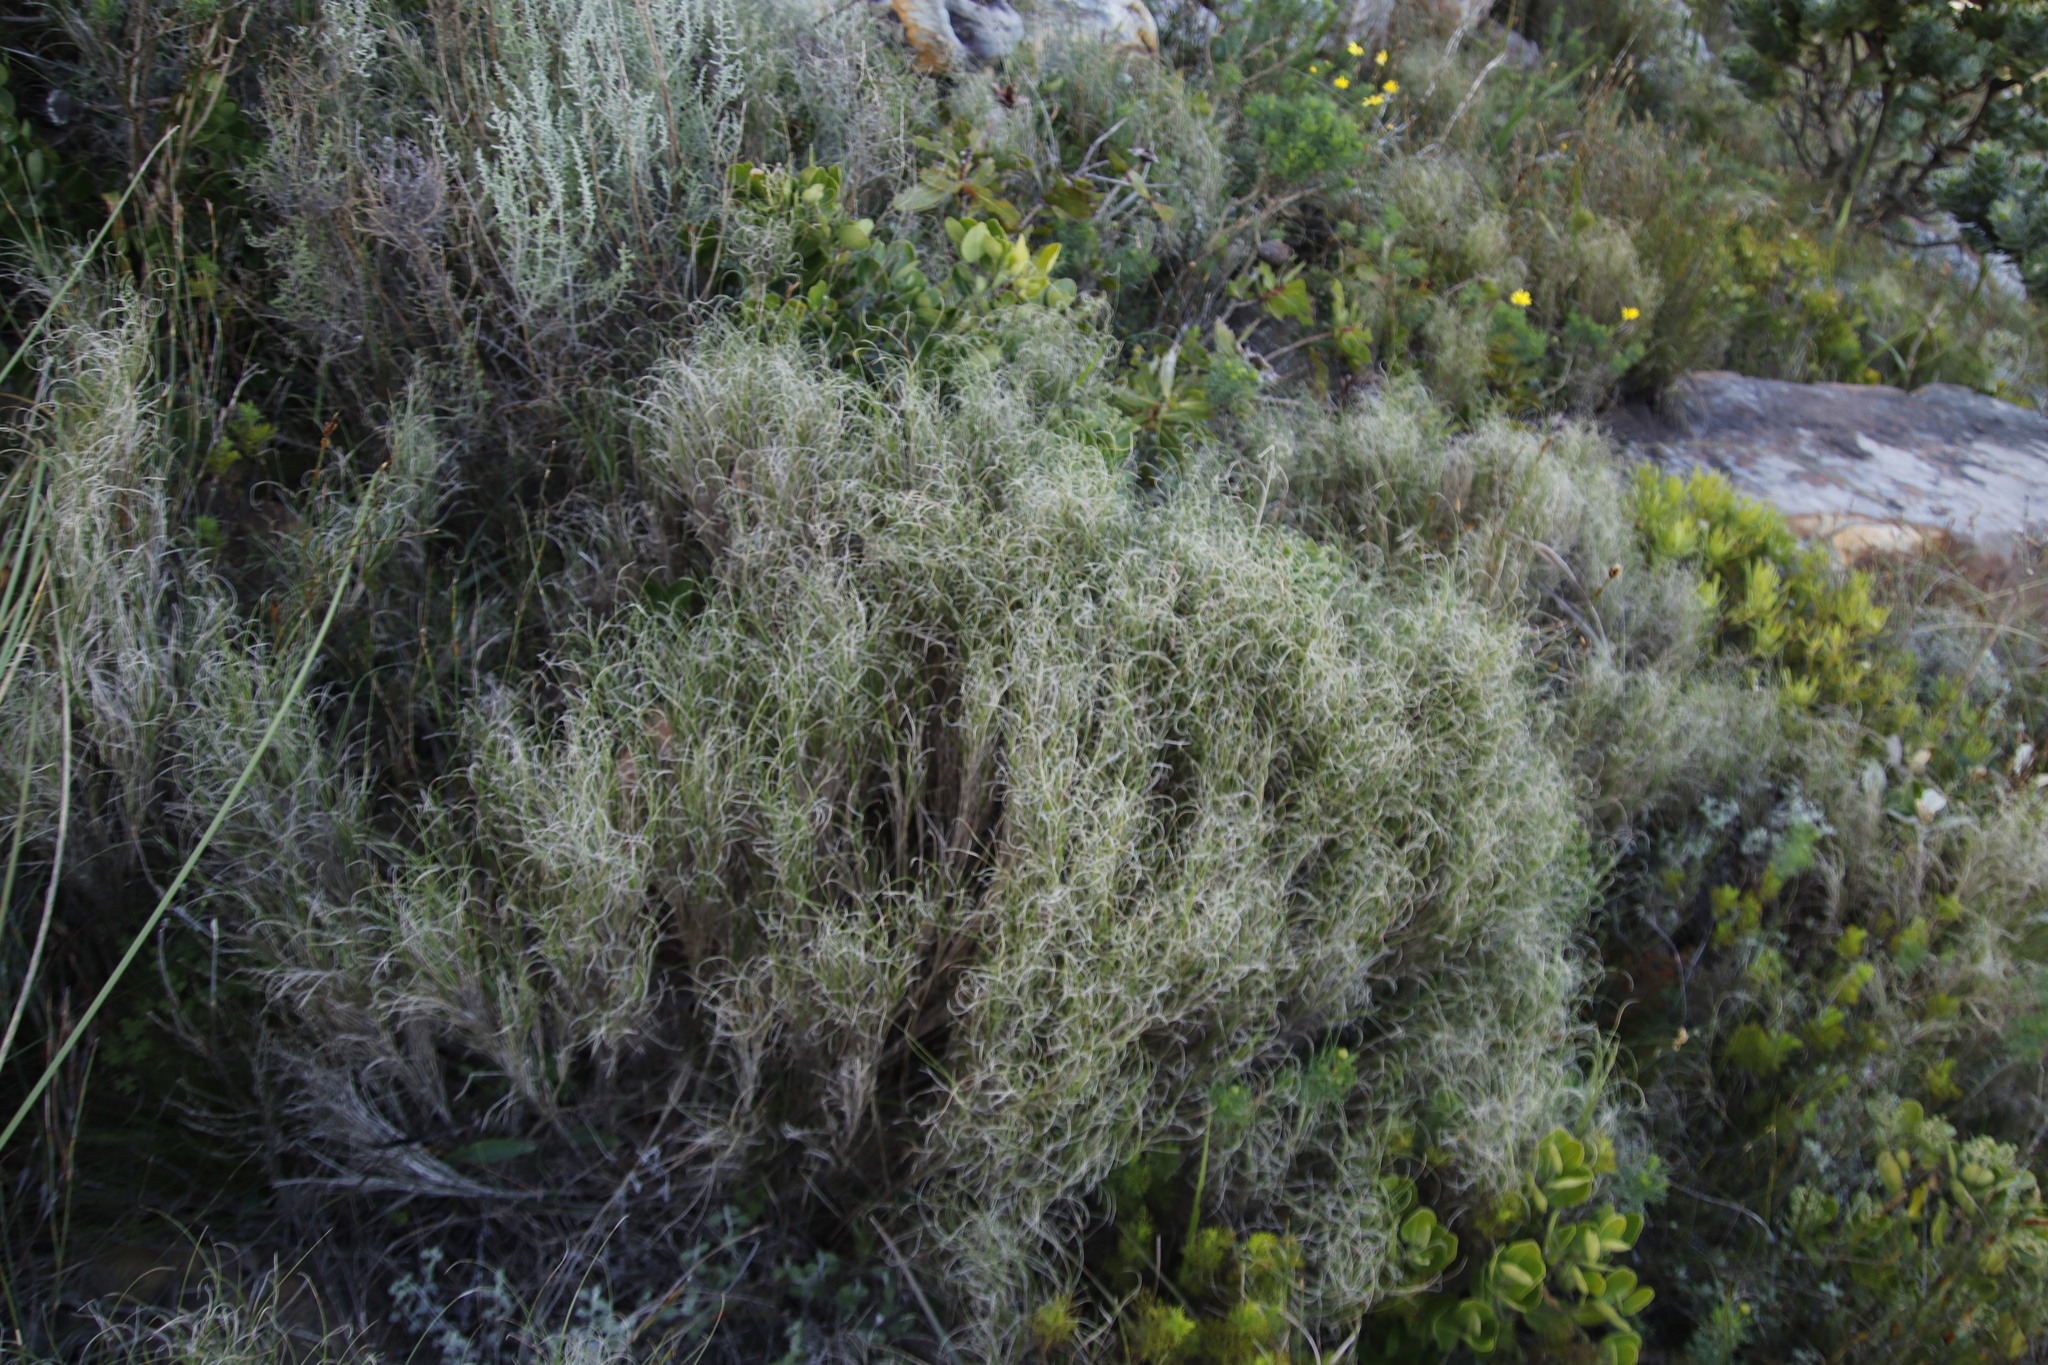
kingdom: Plantae
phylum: Tracheophyta
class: Liliopsida
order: Poales
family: Poaceae
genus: Pseudopentameris
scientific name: Pseudopentameris macrantha
